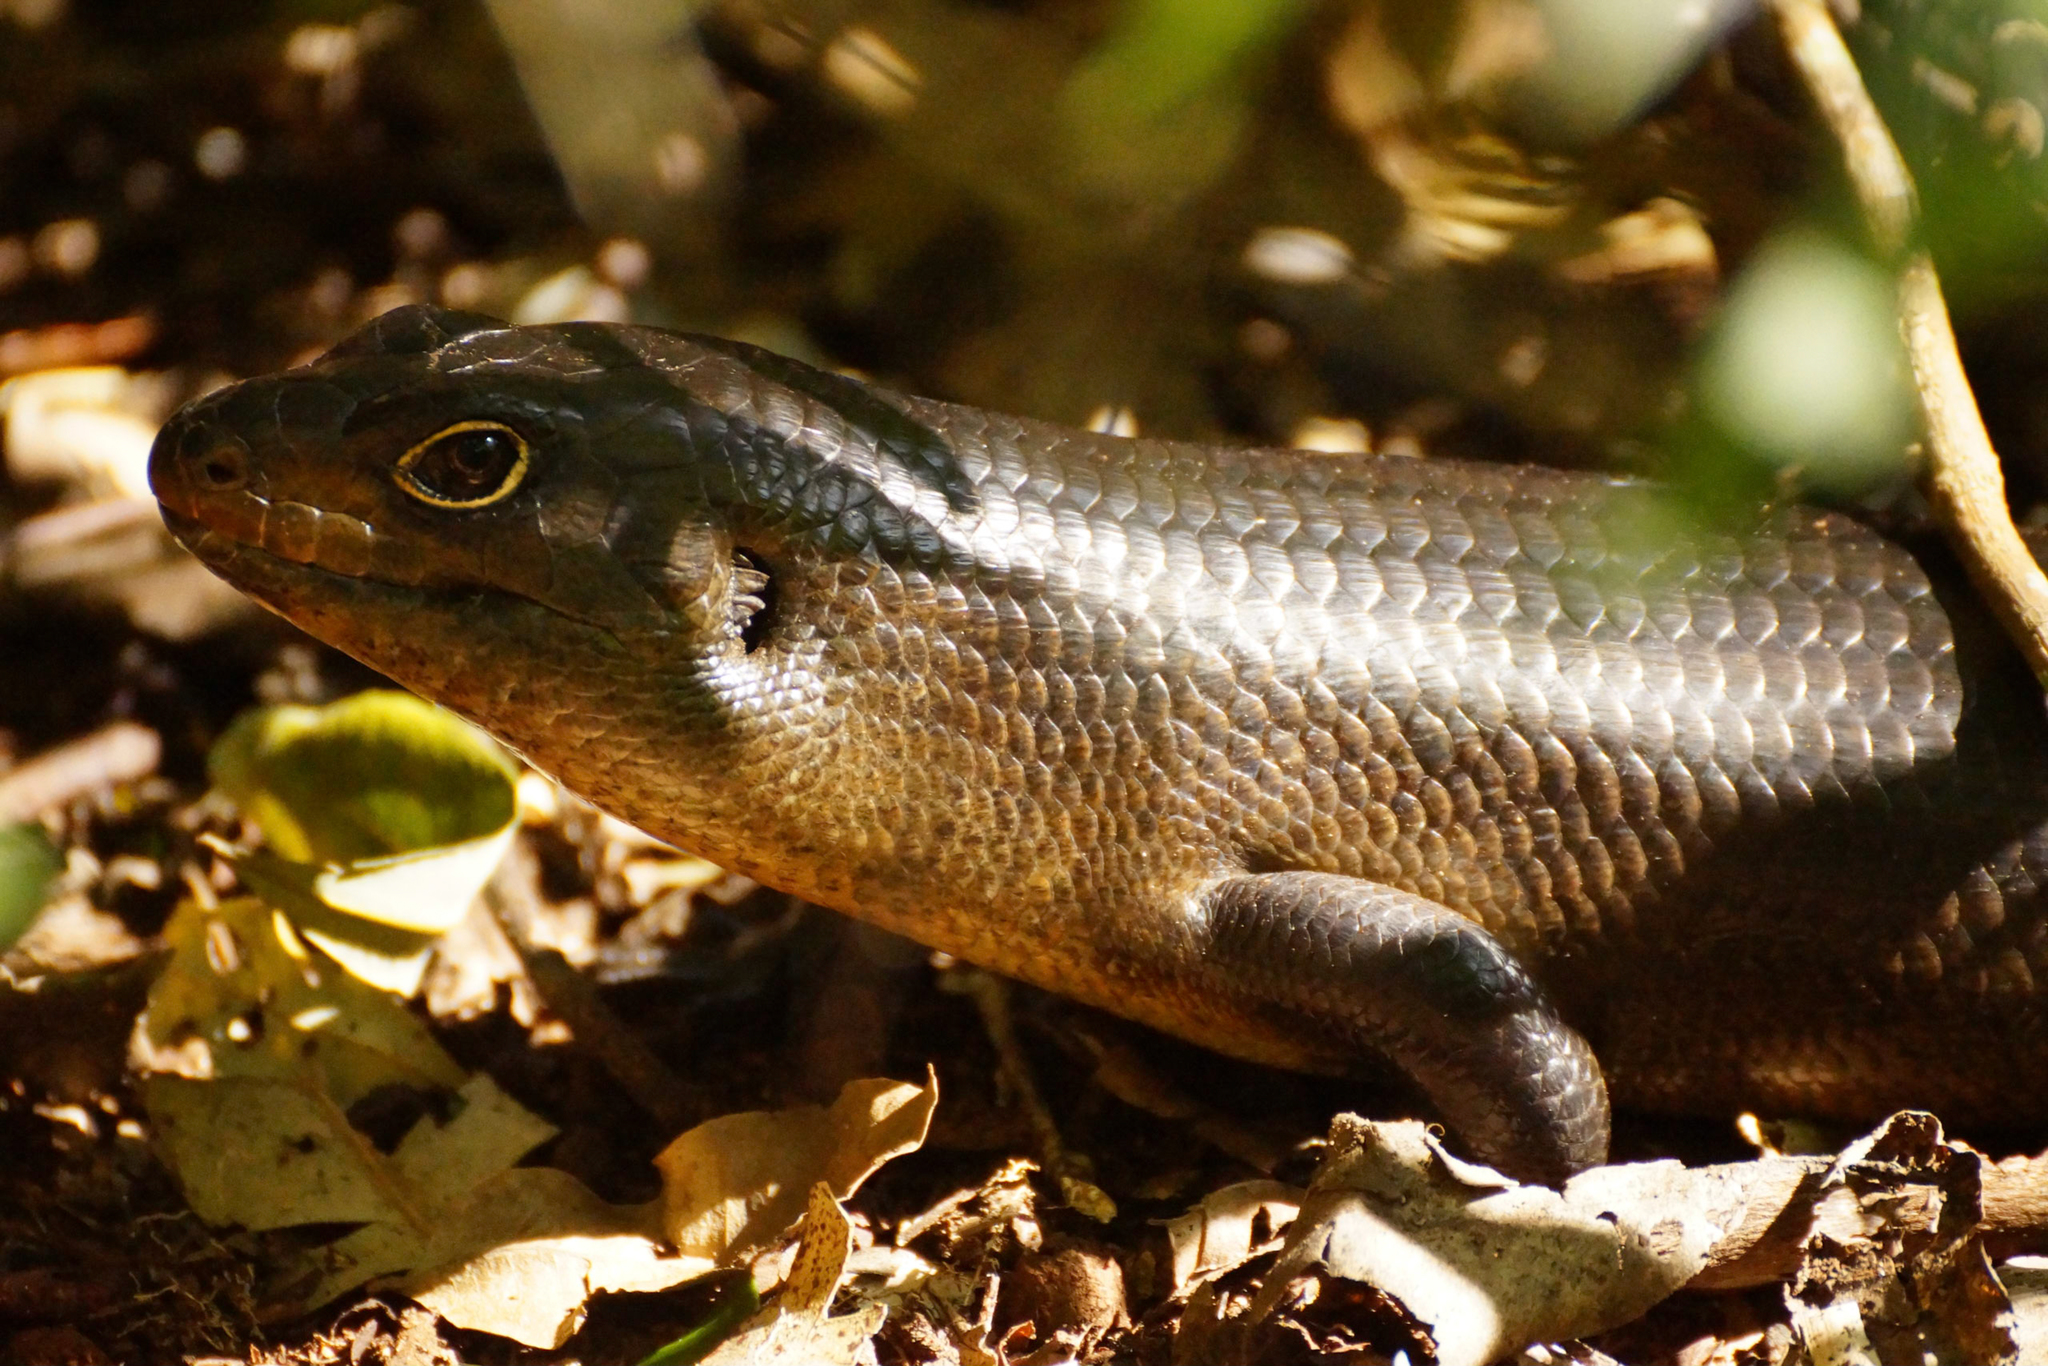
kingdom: Animalia
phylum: Chordata
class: Squamata
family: Scincidae
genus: Bellatorias
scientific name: Bellatorias major
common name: Land mullet
